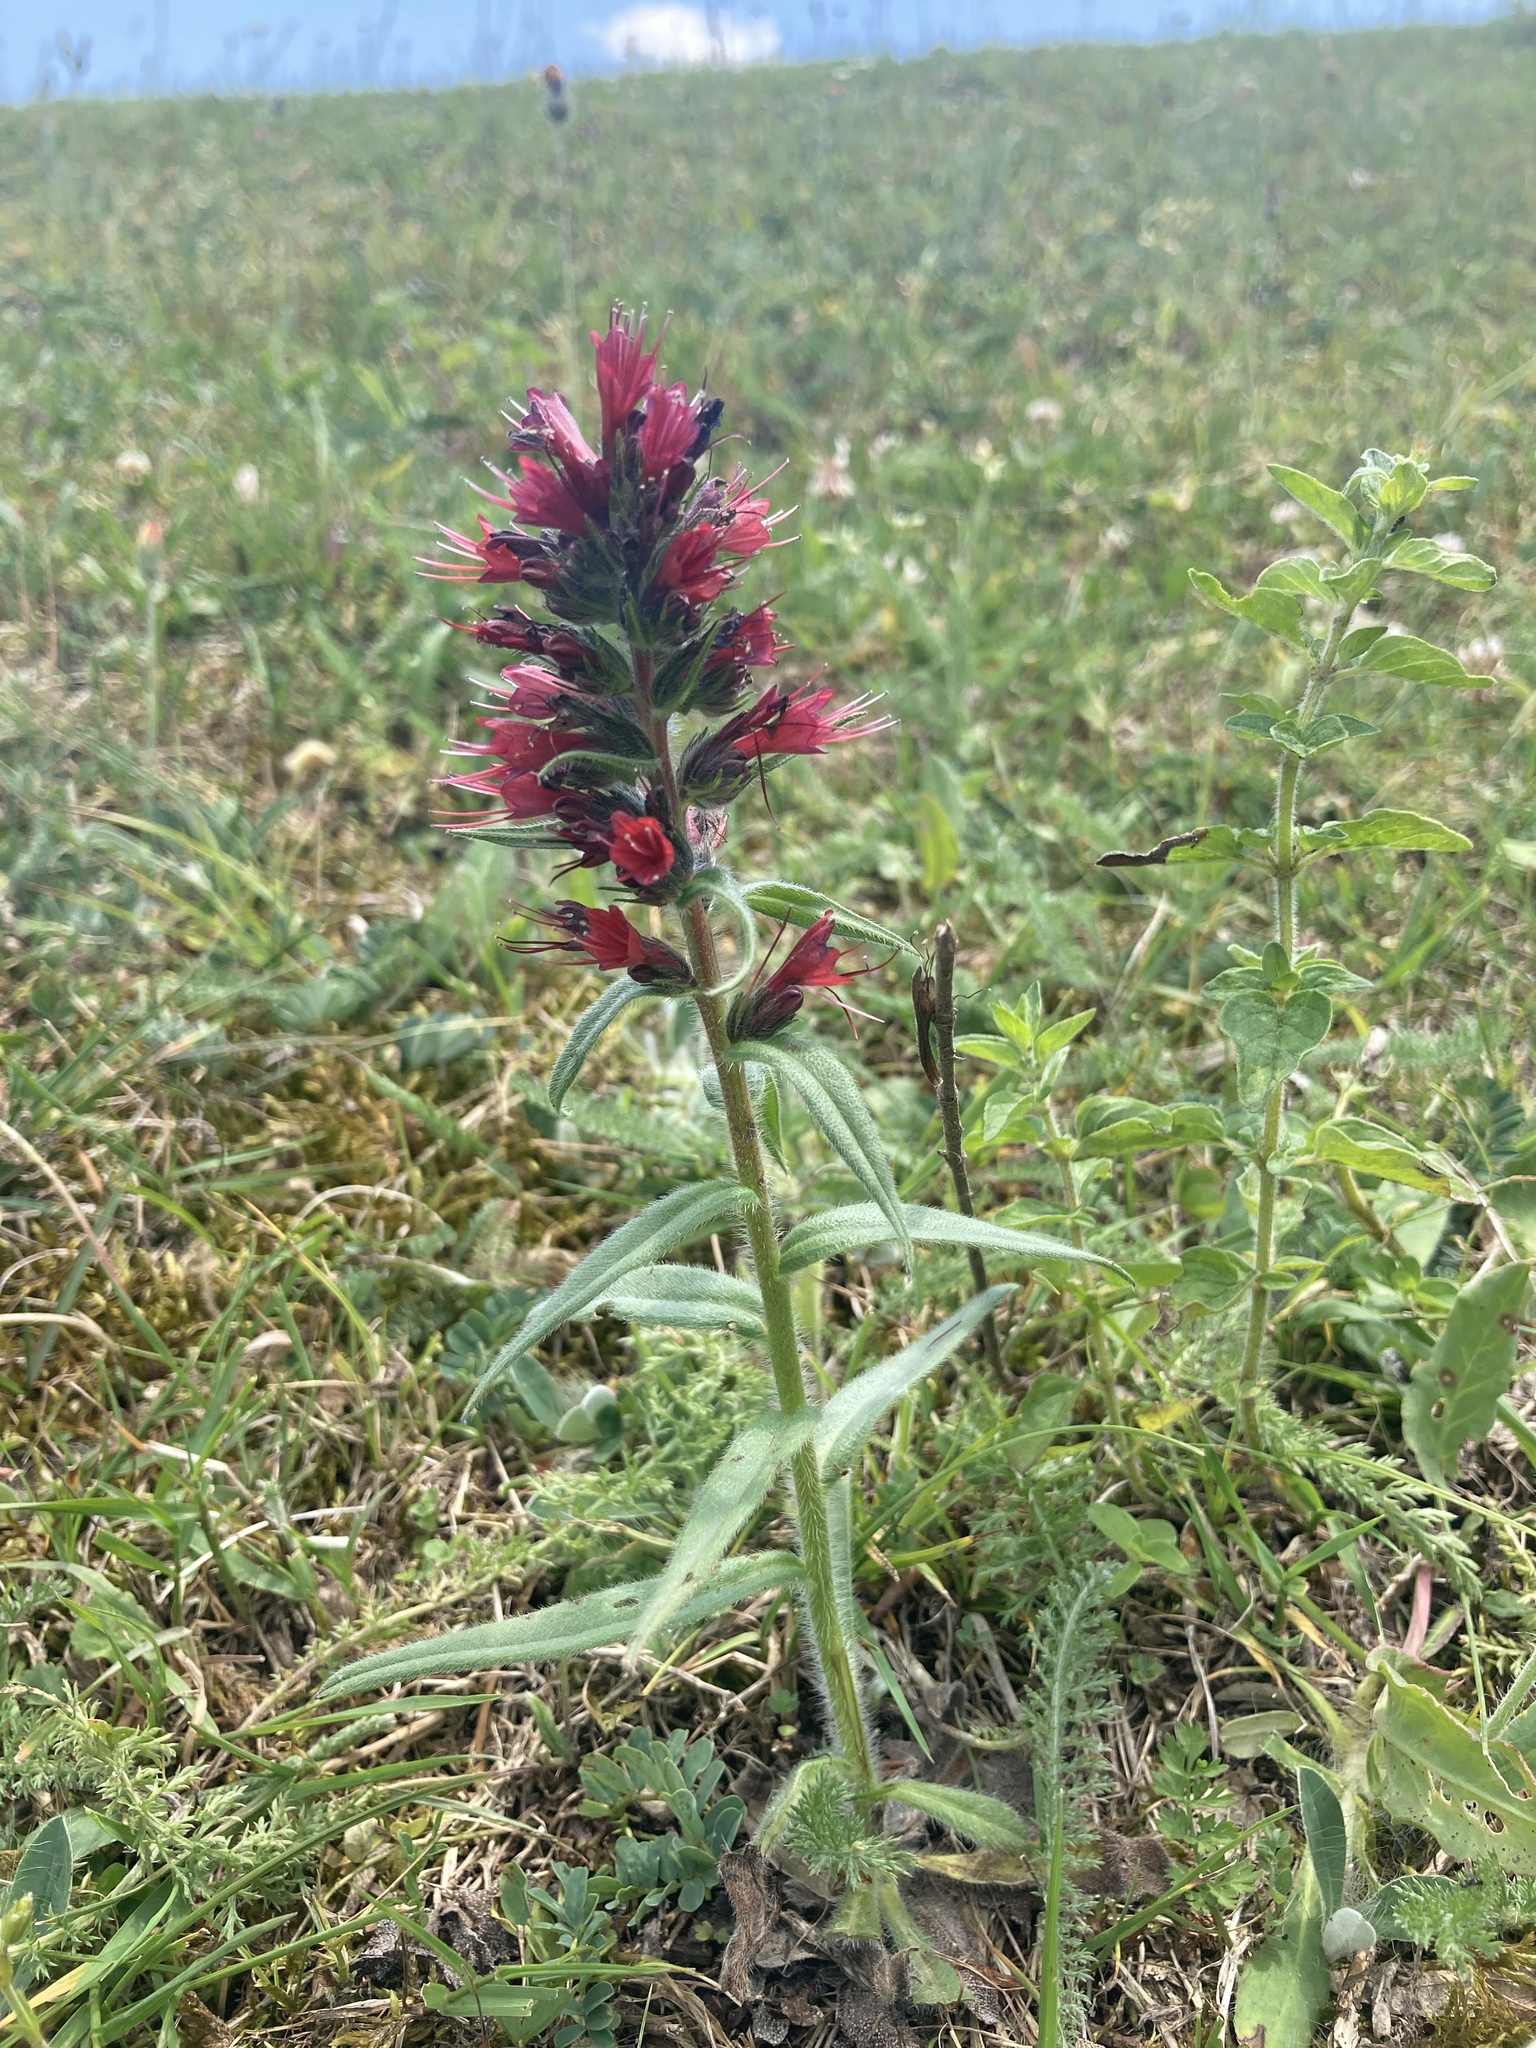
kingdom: Plantae
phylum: Tracheophyta
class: Magnoliopsida
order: Boraginales
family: Boraginaceae
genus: Pontechium
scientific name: Pontechium maculatum
